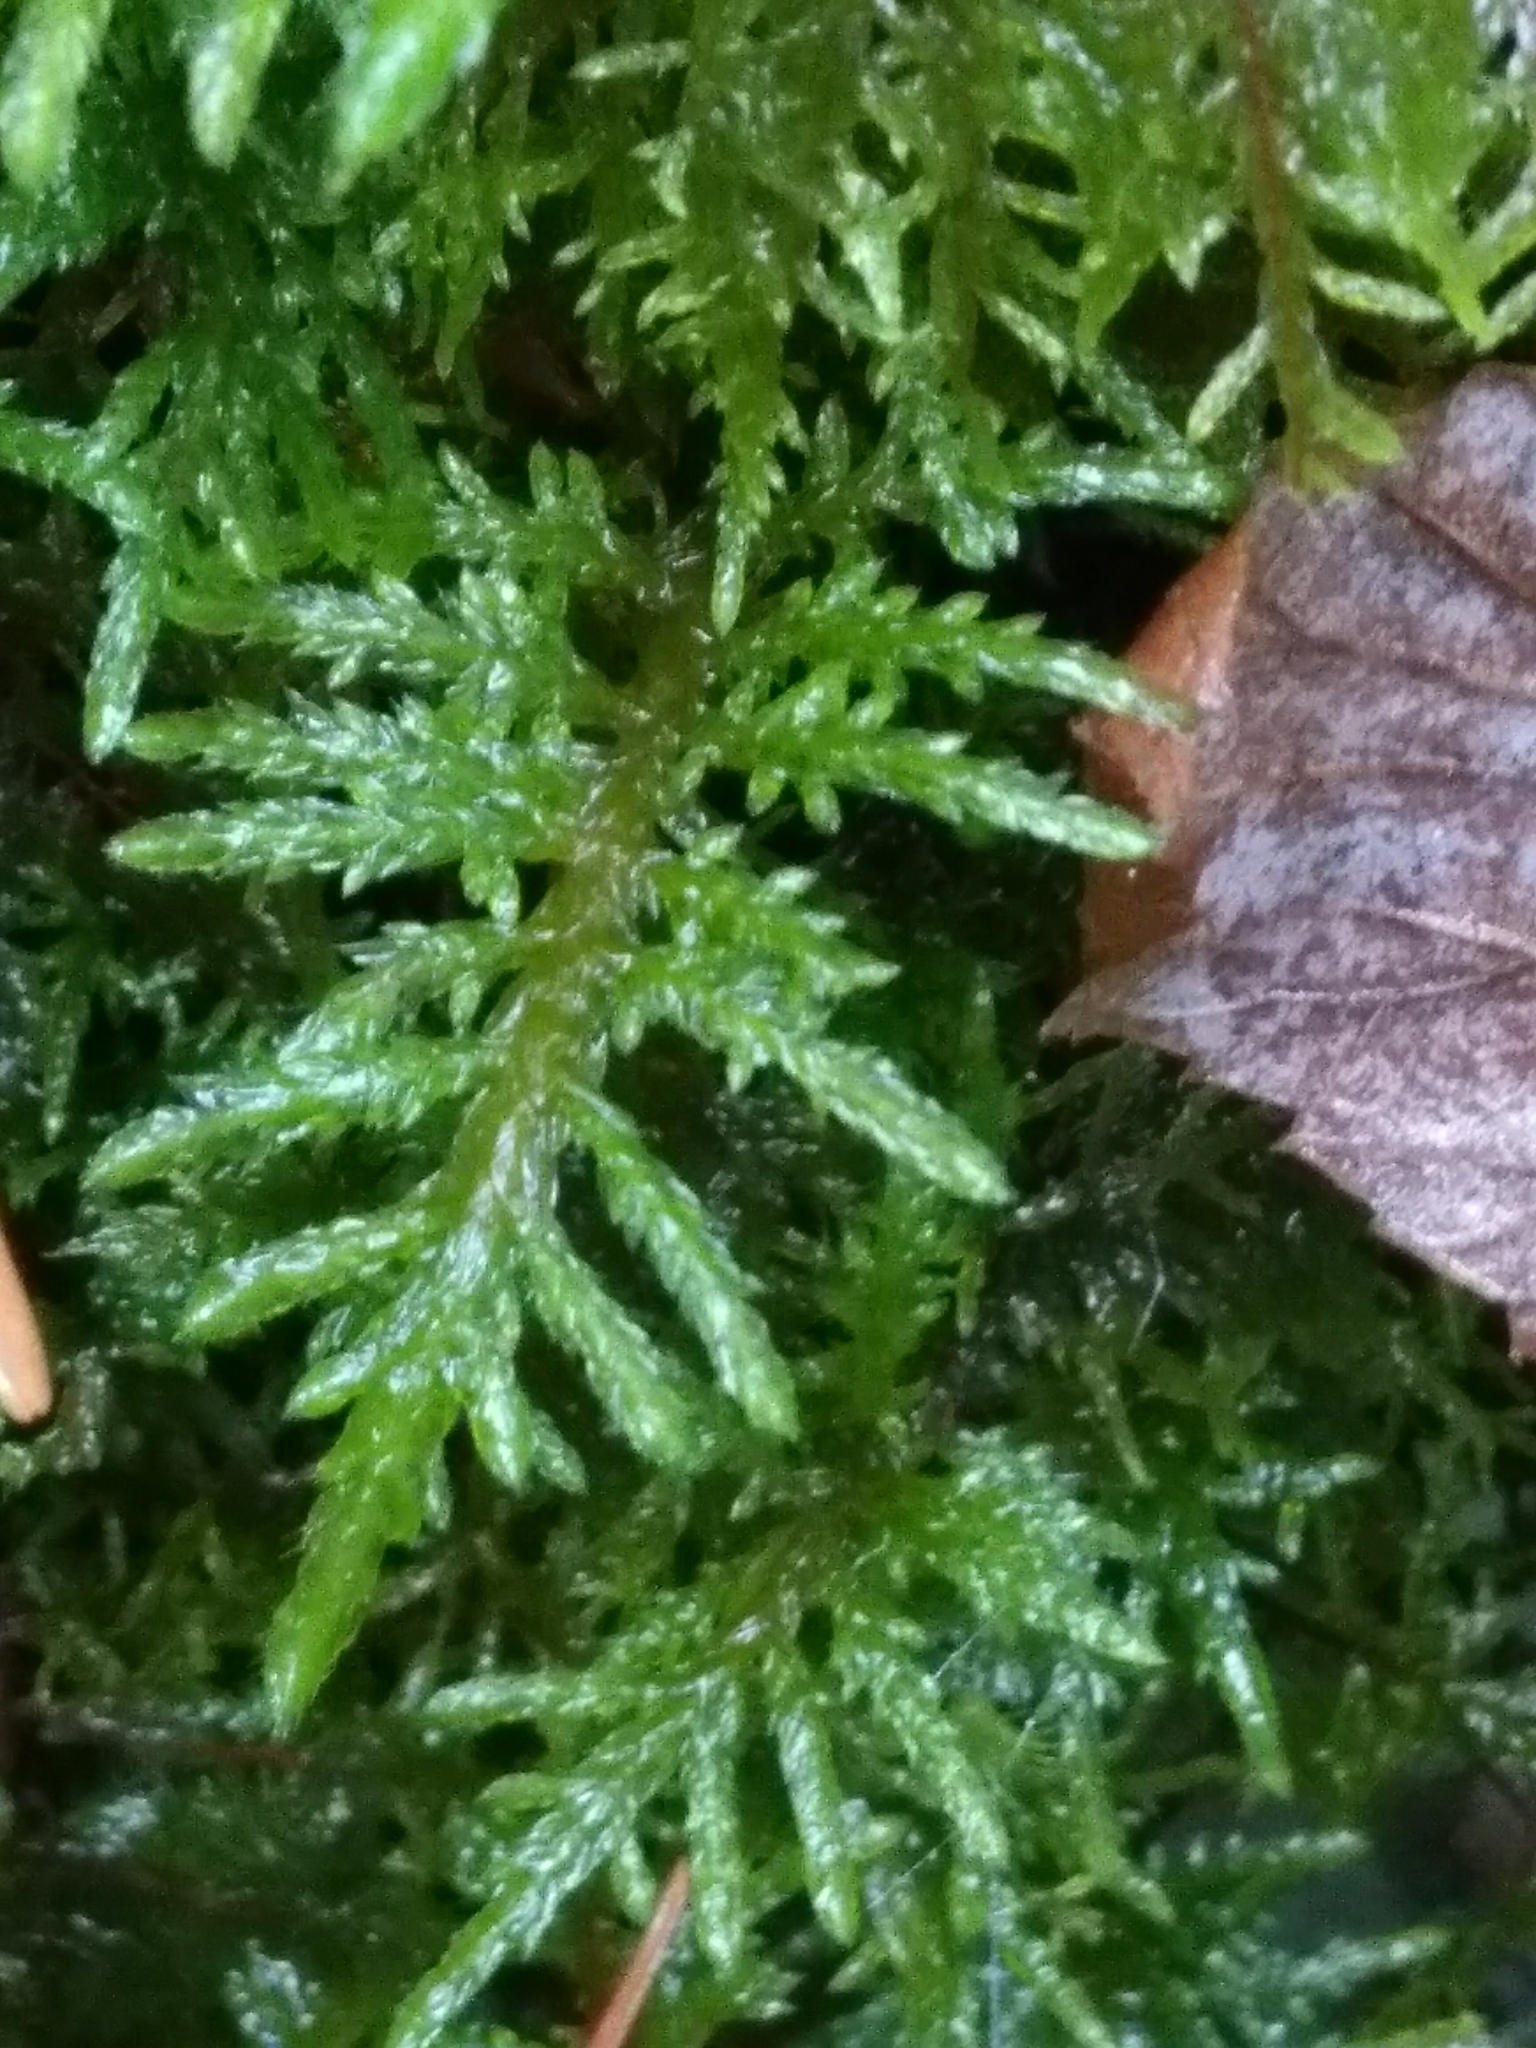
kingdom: Plantae
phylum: Bryophyta
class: Bryopsida
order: Hypnales
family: Hylocomiaceae
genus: Hylocomium
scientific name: Hylocomium splendens
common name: Stairstep moss
